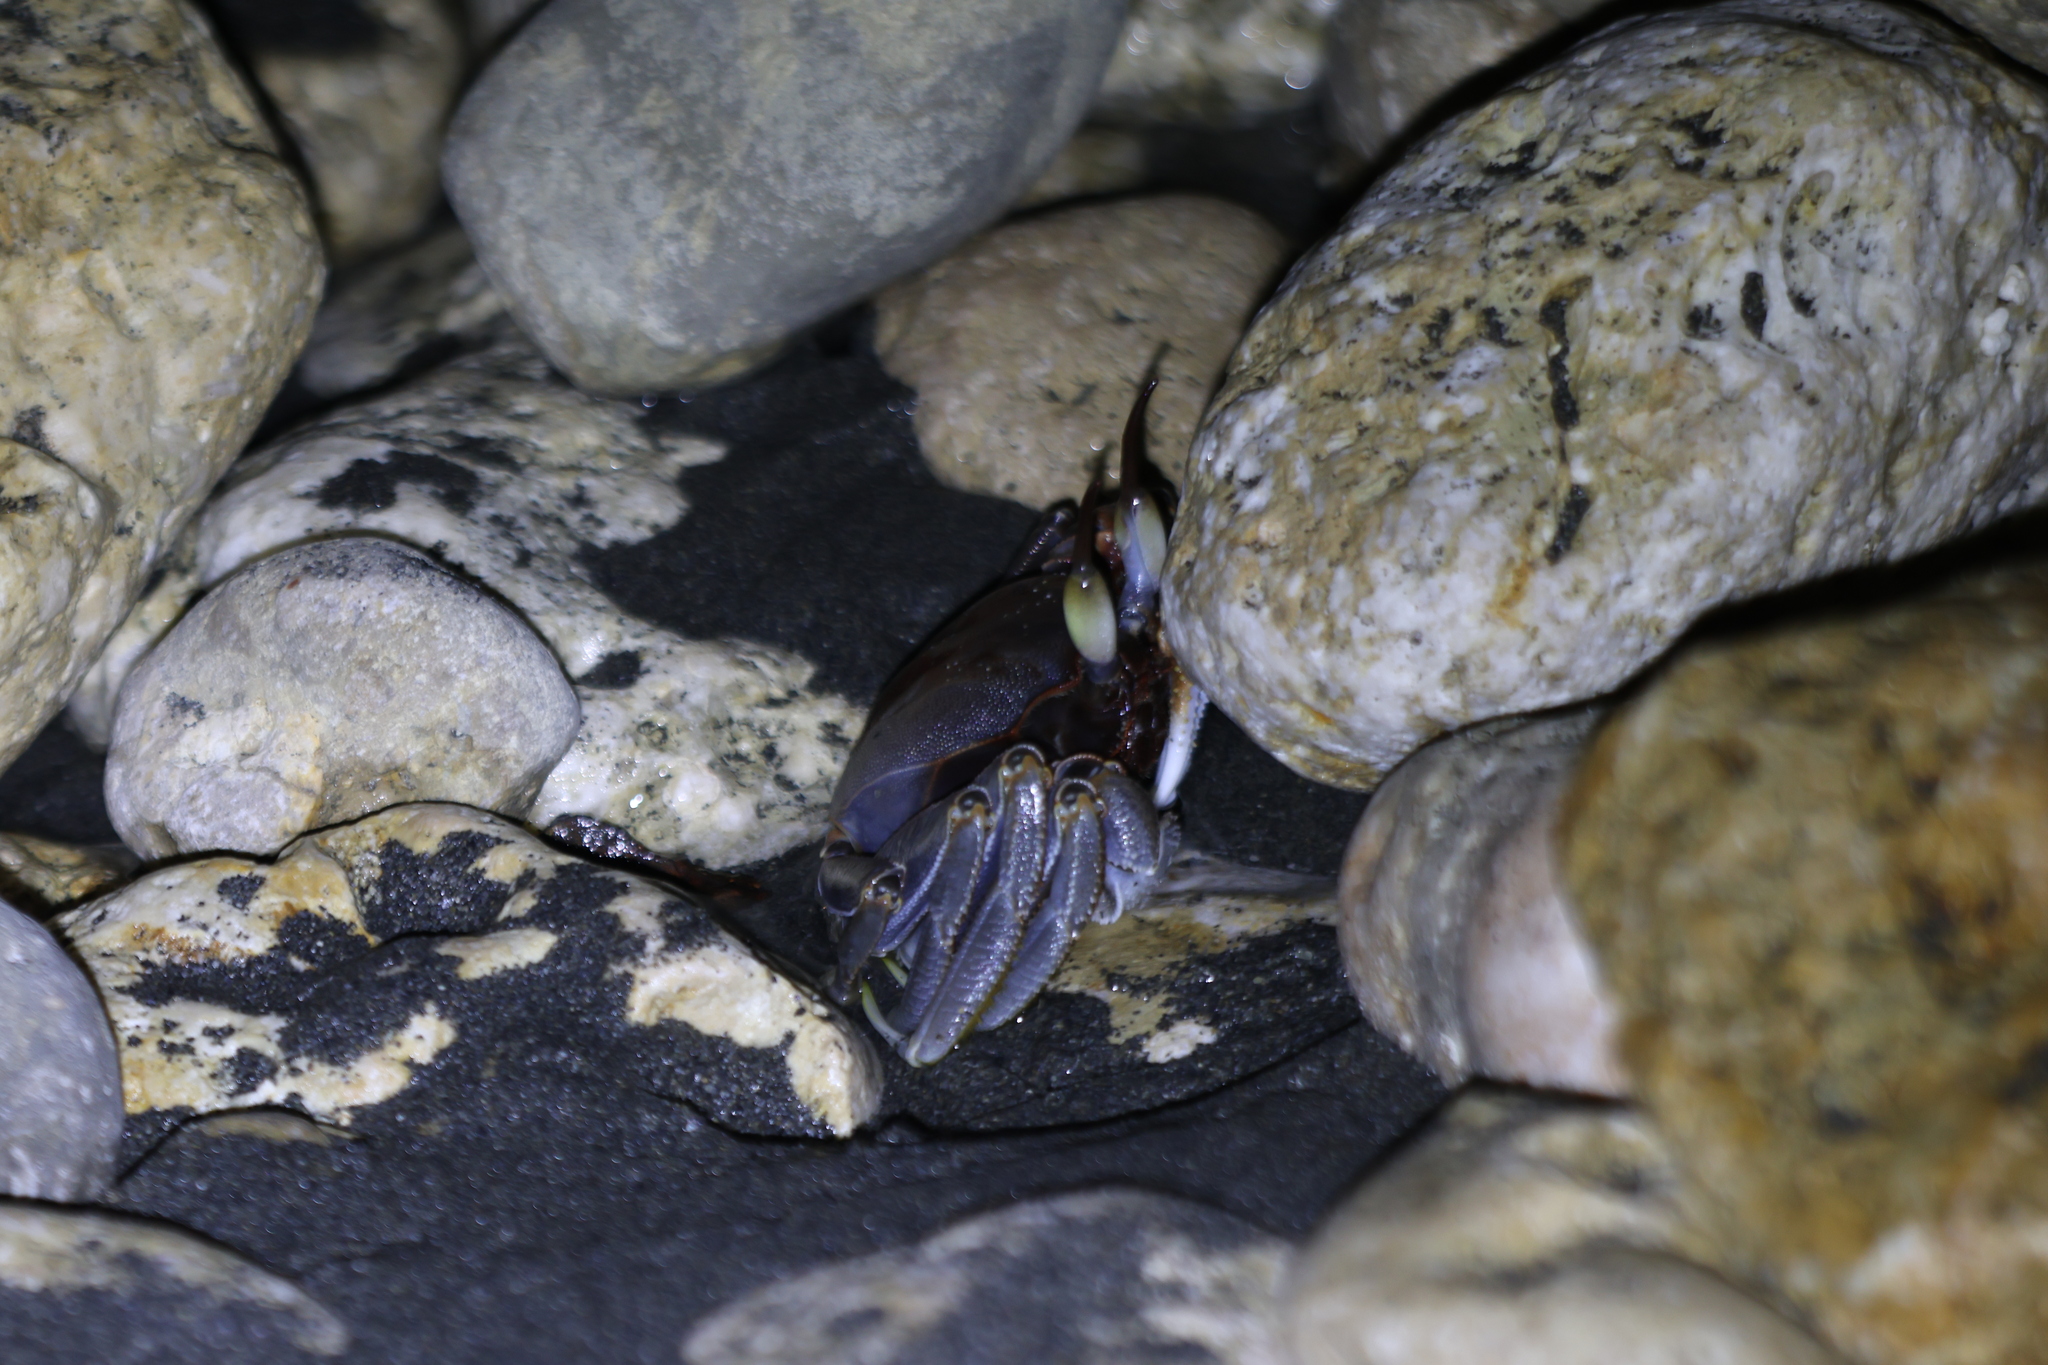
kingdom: Animalia
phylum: Arthropoda
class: Malacostraca
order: Decapoda
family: Ocypodidae
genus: Ocypode
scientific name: Ocypode ceratophthalmus
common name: Indo-pacific ghost crab
